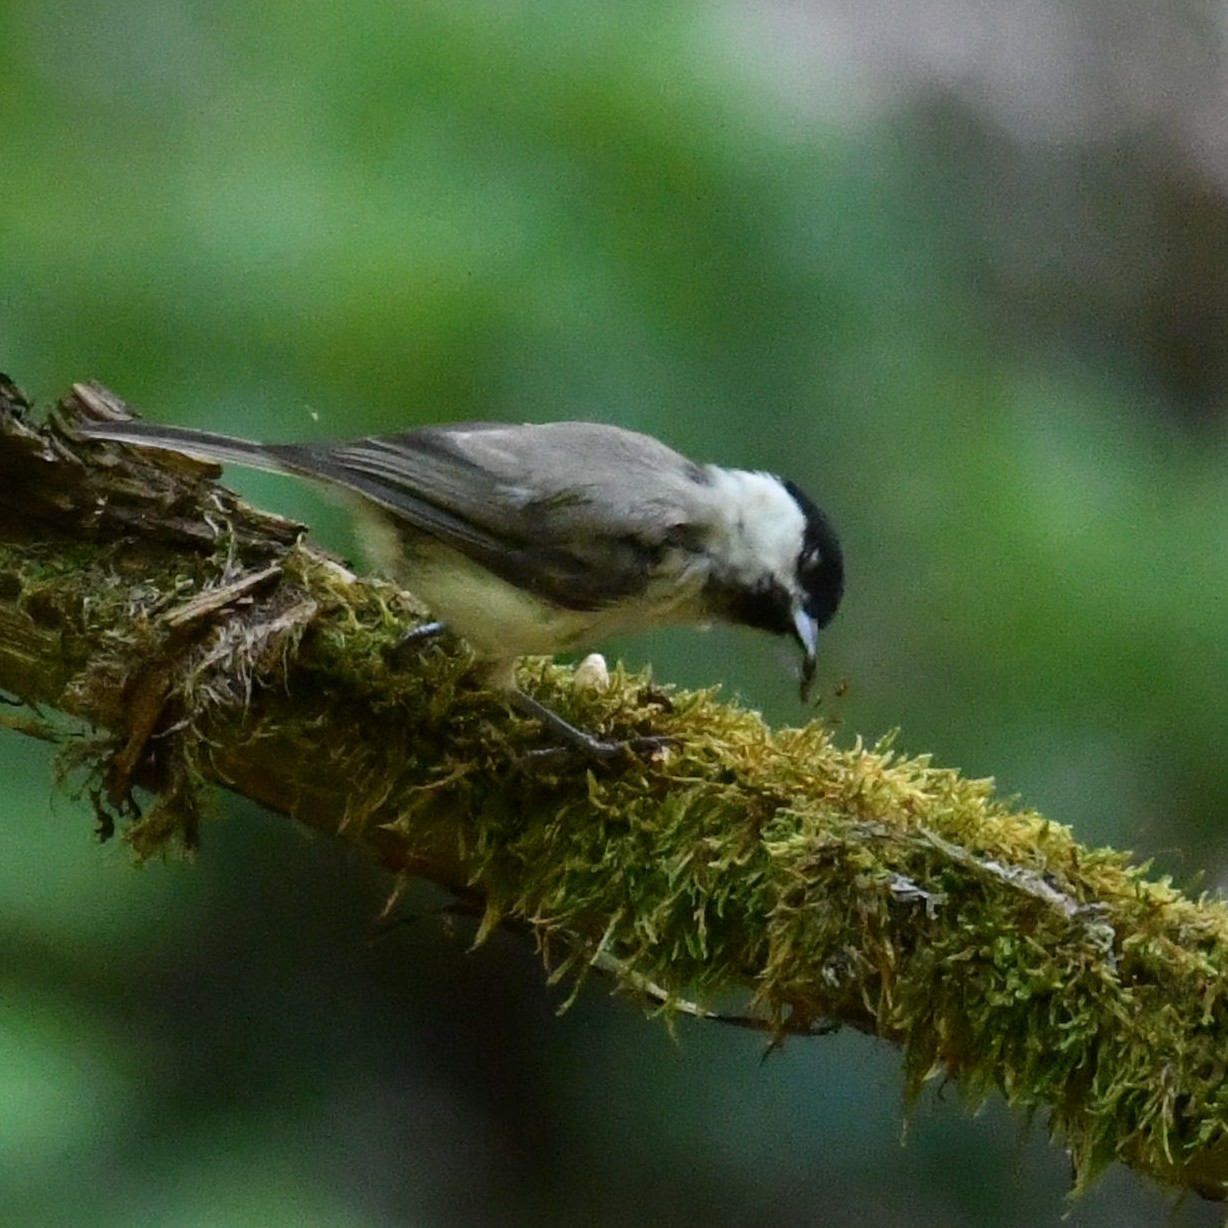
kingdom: Animalia
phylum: Chordata
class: Aves
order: Passeriformes
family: Paridae
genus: Poecile
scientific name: Poecile montanus
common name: Willow tit
